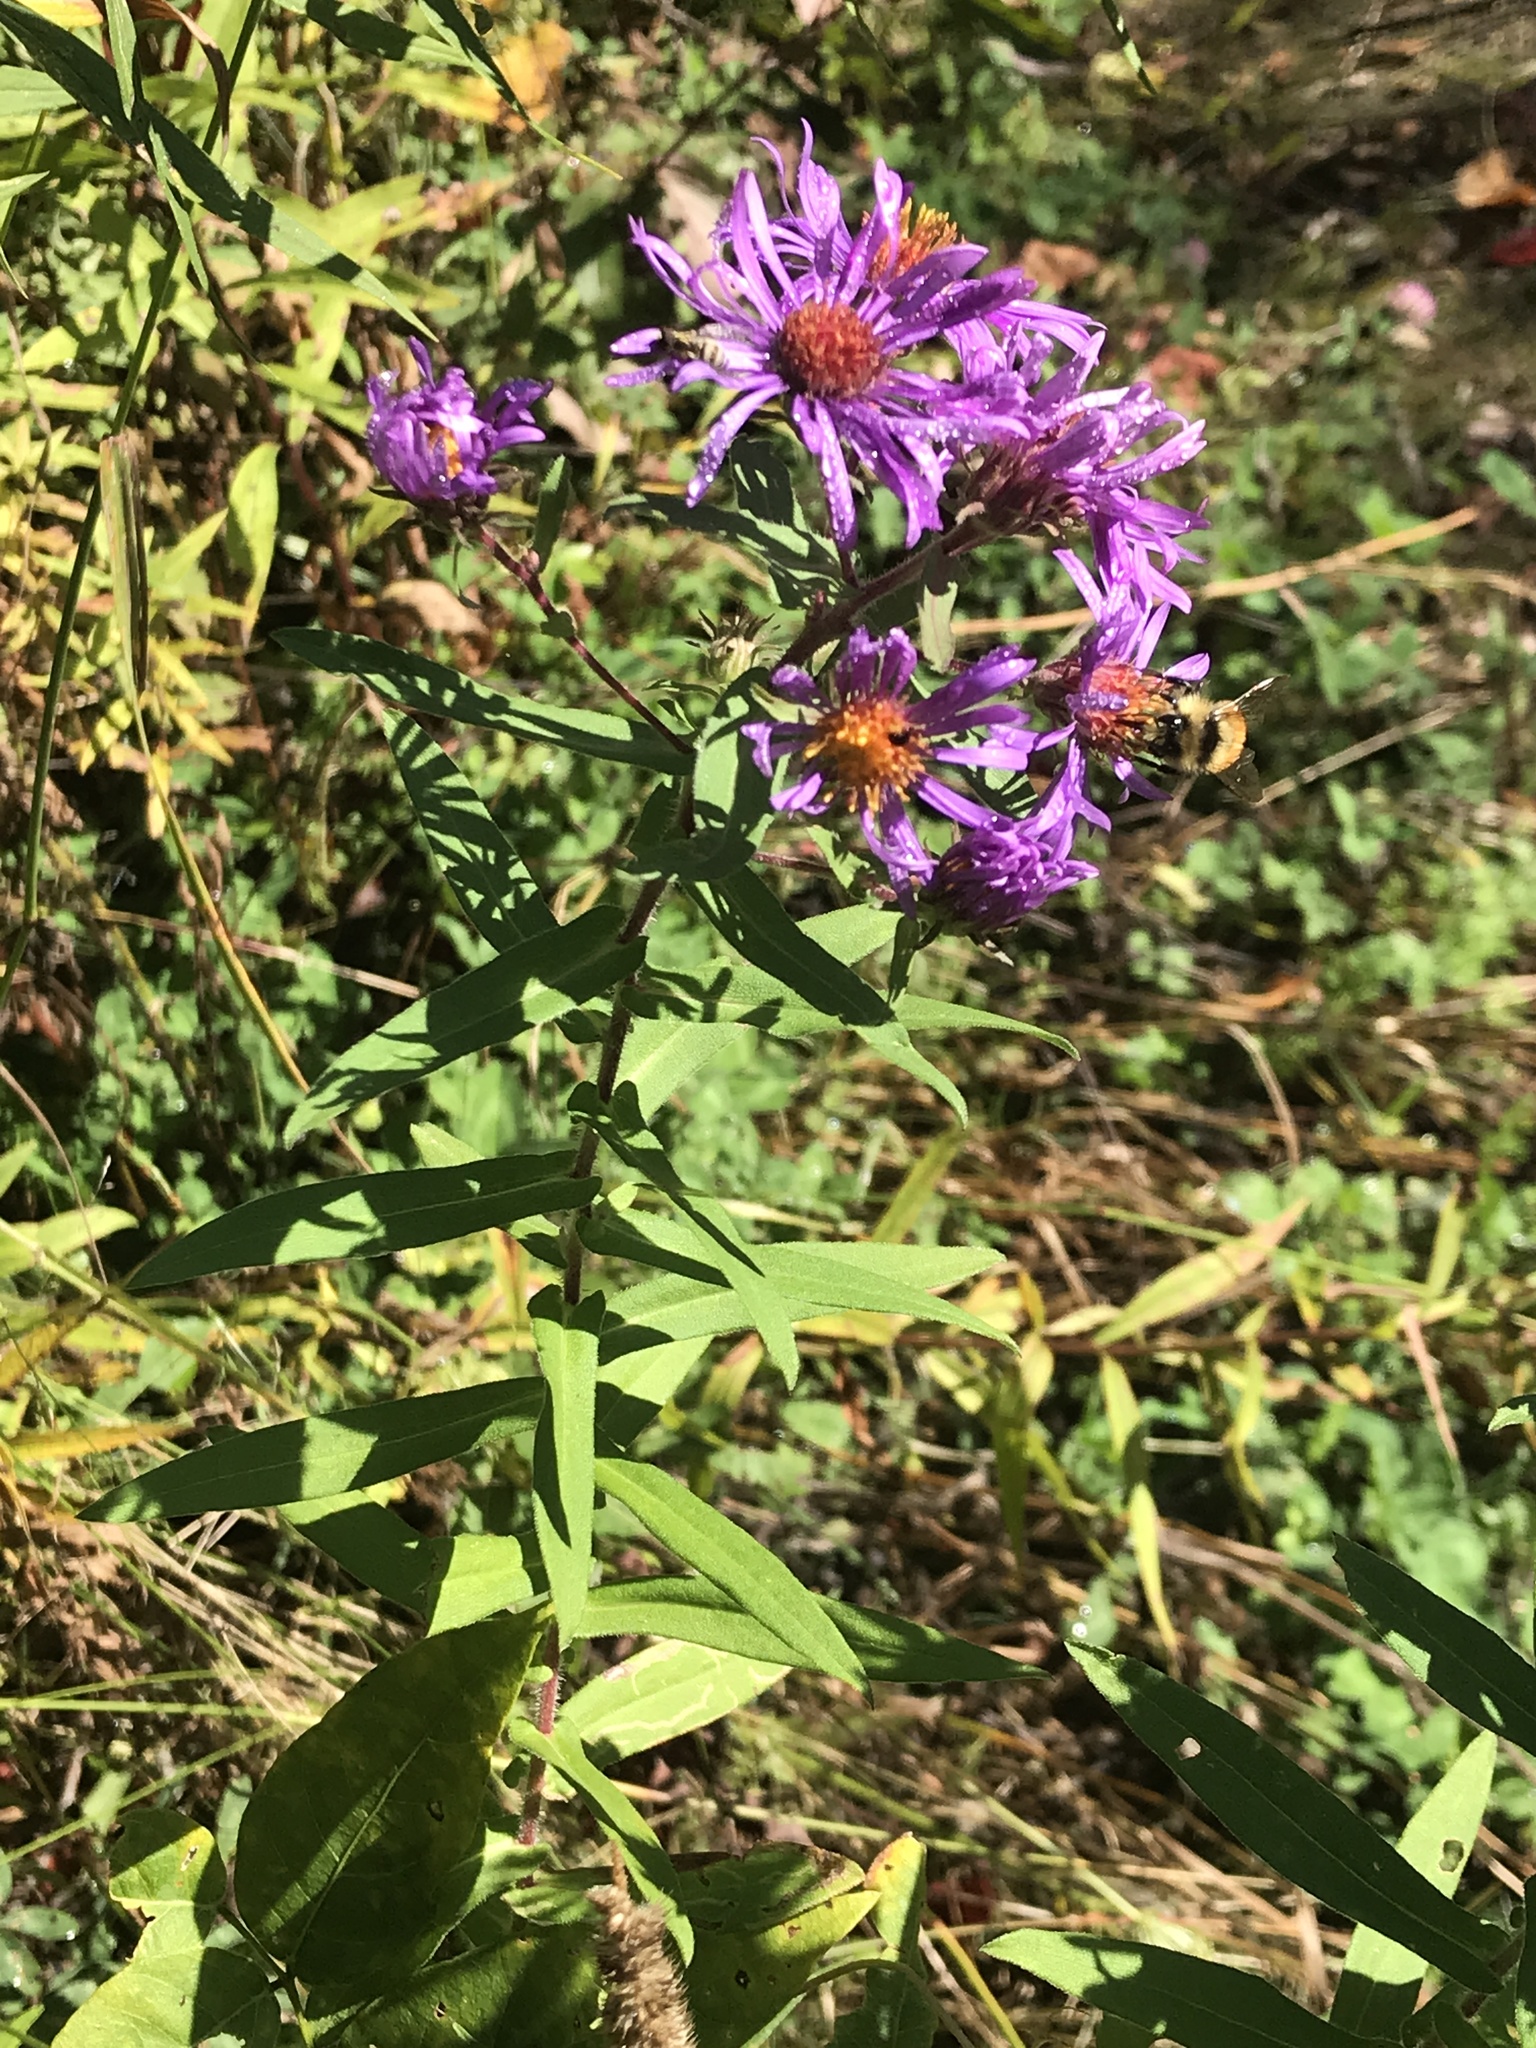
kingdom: Plantae
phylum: Tracheophyta
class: Magnoliopsida
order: Asterales
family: Asteraceae
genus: Symphyotrichum
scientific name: Symphyotrichum novae-angliae
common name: Michaelmas daisy
